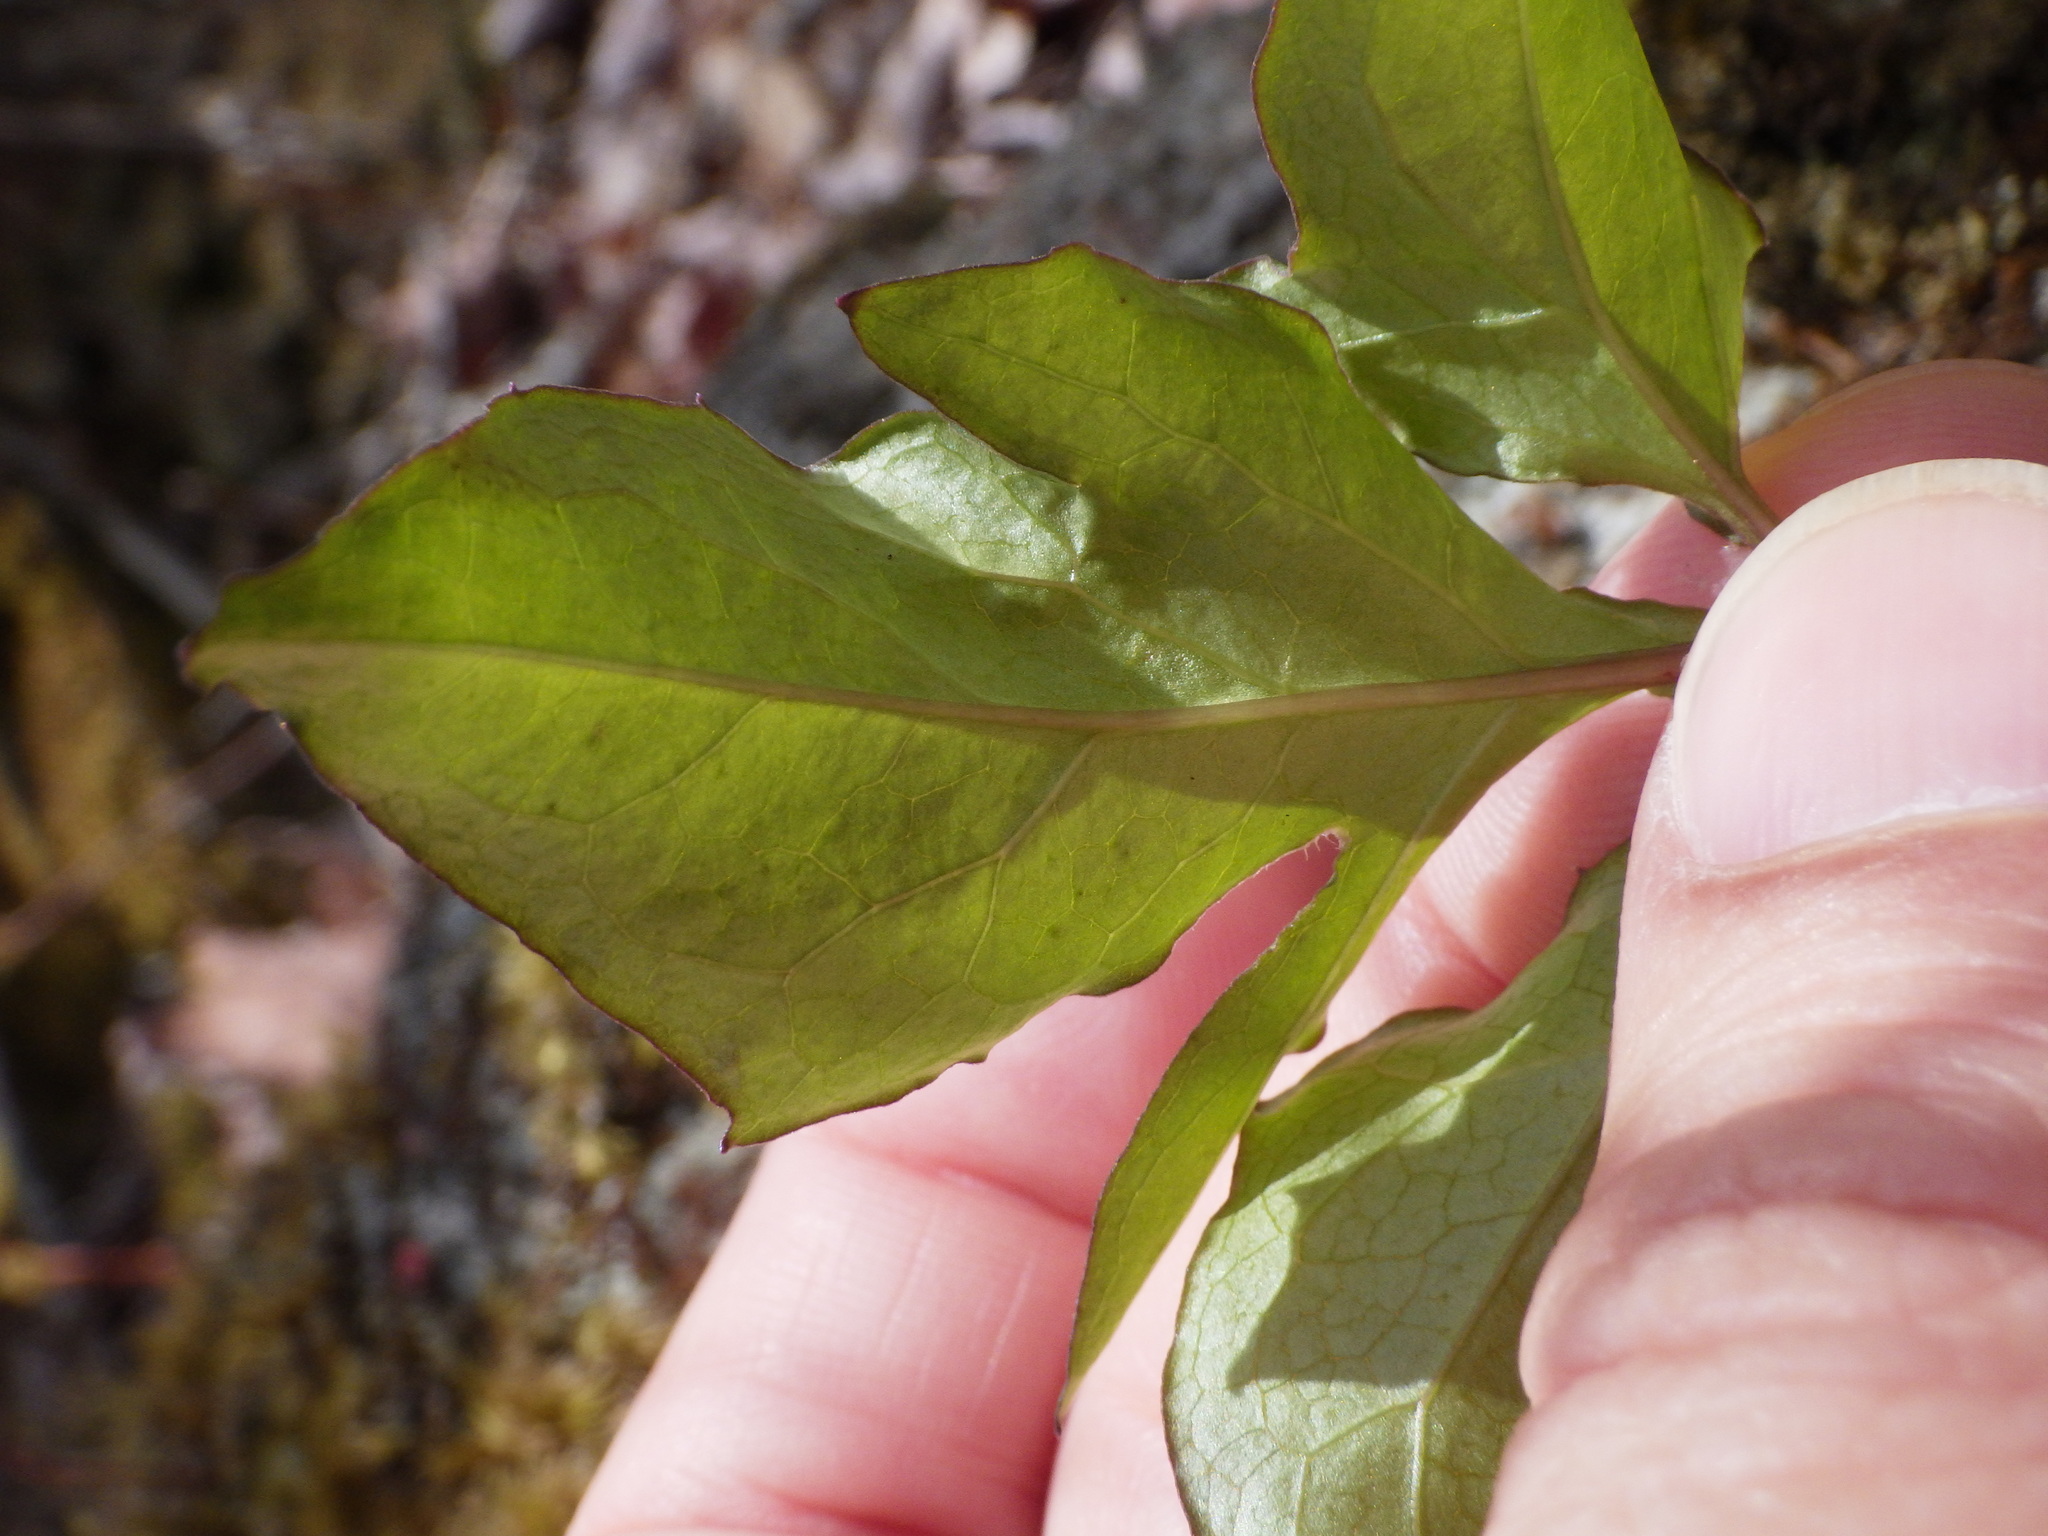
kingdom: Plantae
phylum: Tracheophyta
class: Magnoliopsida
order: Asterales
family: Asteraceae
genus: Nabalus
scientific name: Nabalus trifoliolatus
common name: Gall-of-the-earth
